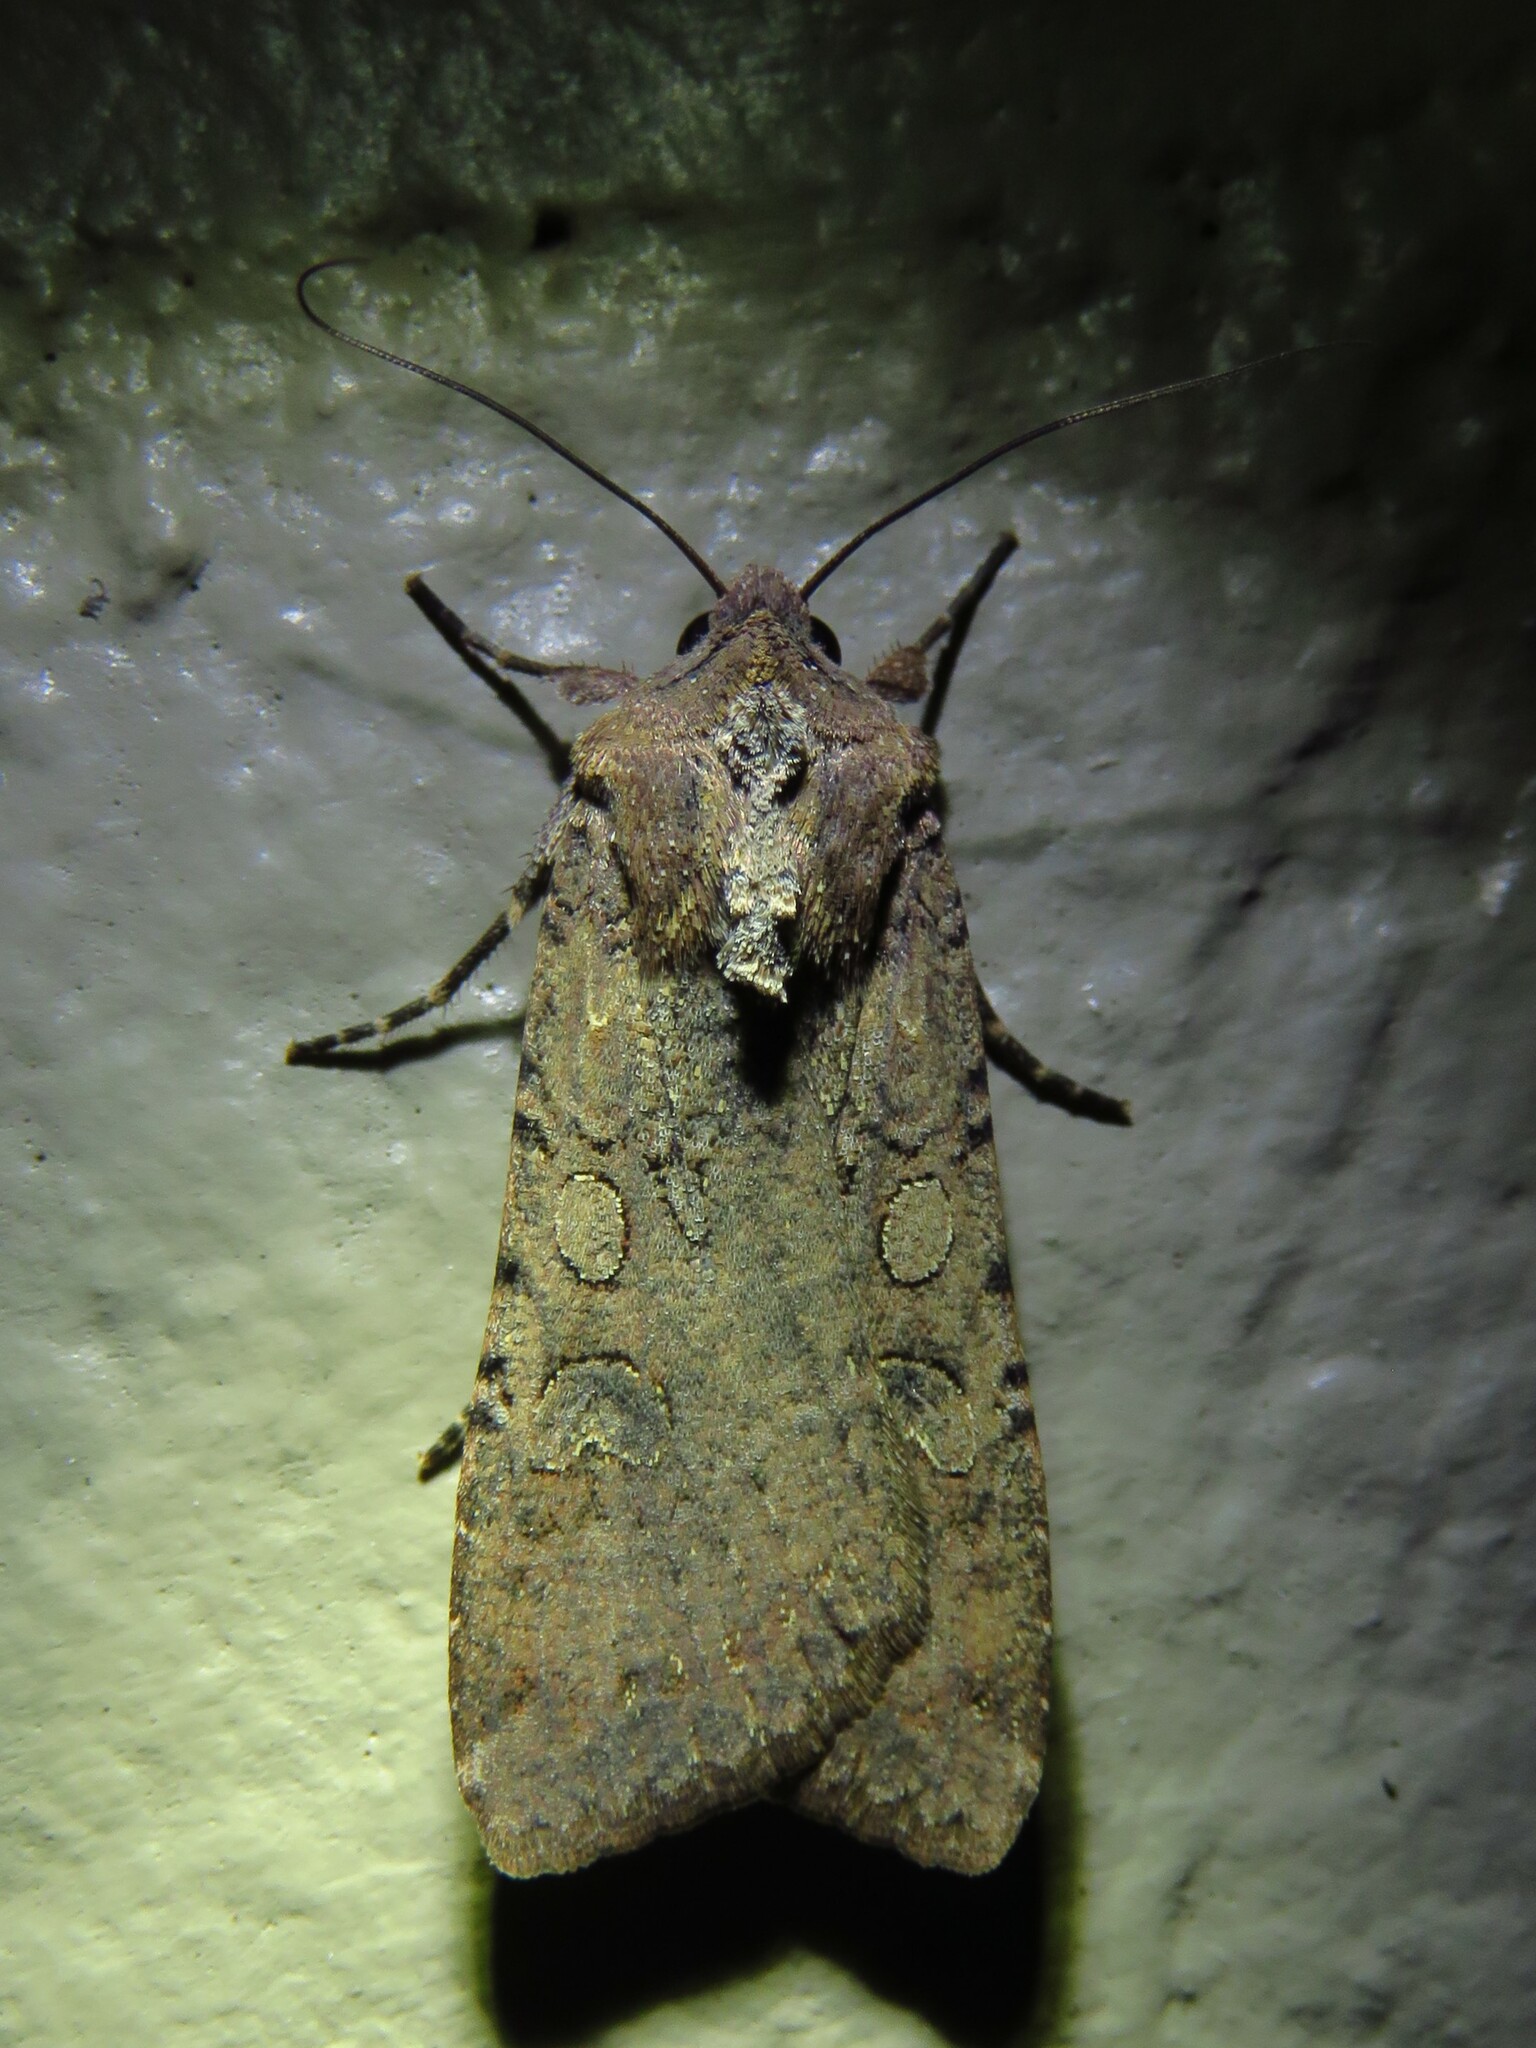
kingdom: Animalia
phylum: Arthropoda
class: Insecta
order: Lepidoptera
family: Noctuidae
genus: Peridroma
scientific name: Peridroma saucia
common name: Pearly underwing
